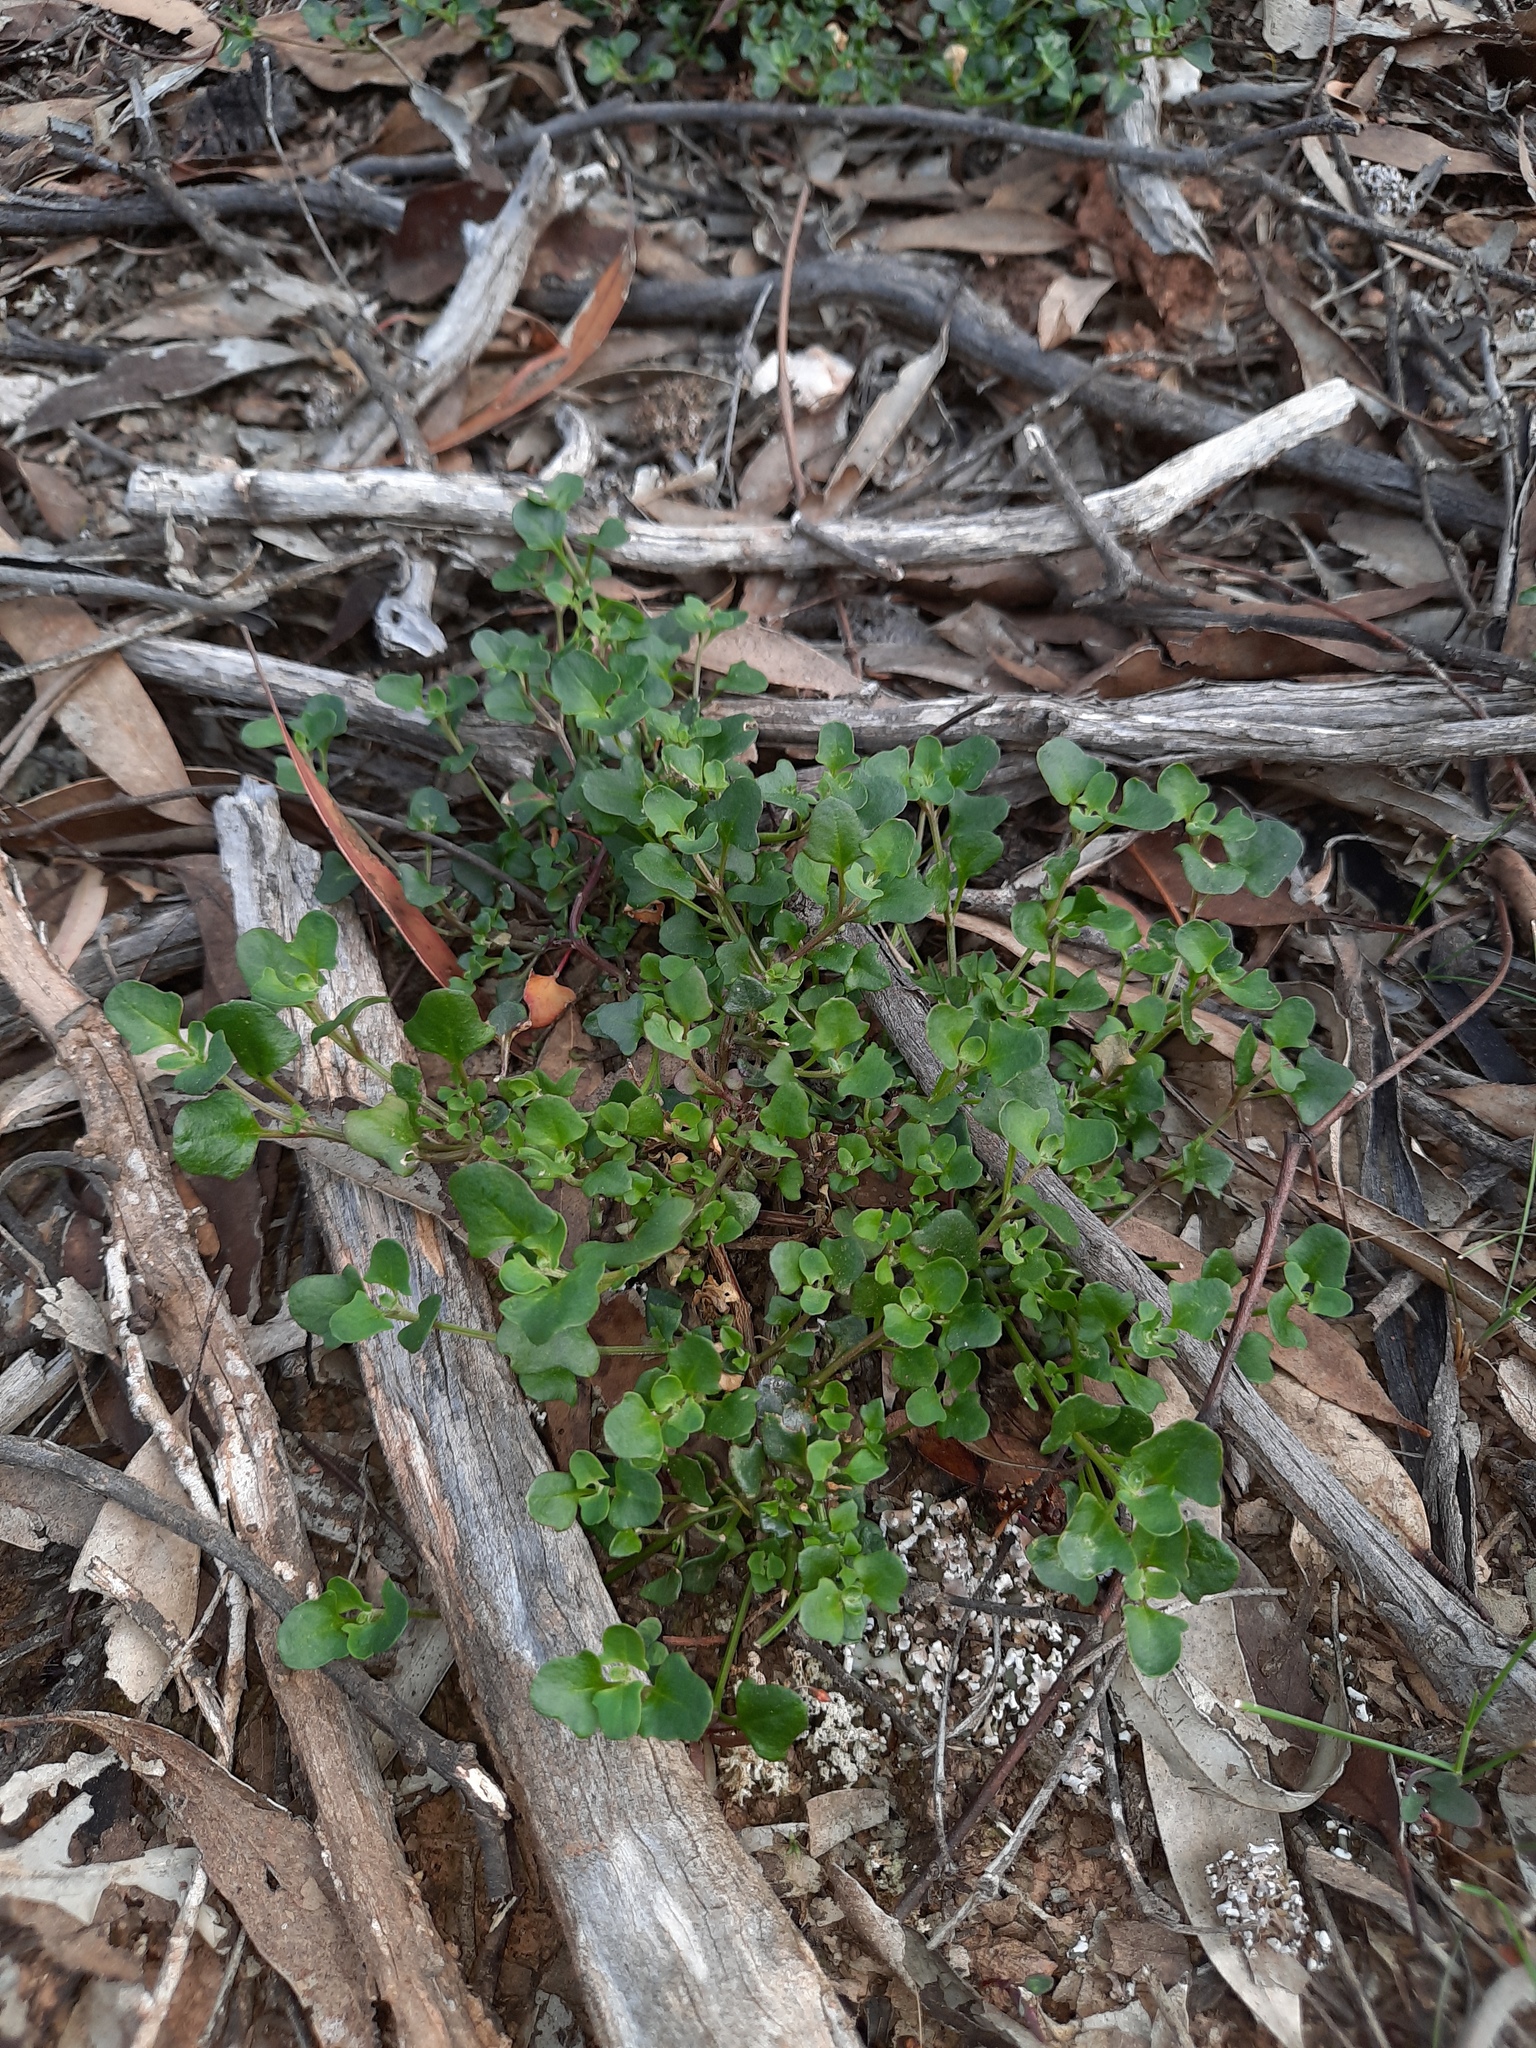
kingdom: Plantae
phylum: Tracheophyta
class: Magnoliopsida
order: Caryophyllales
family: Amaranthaceae
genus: Chenopodium
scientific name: Chenopodium robertianum
